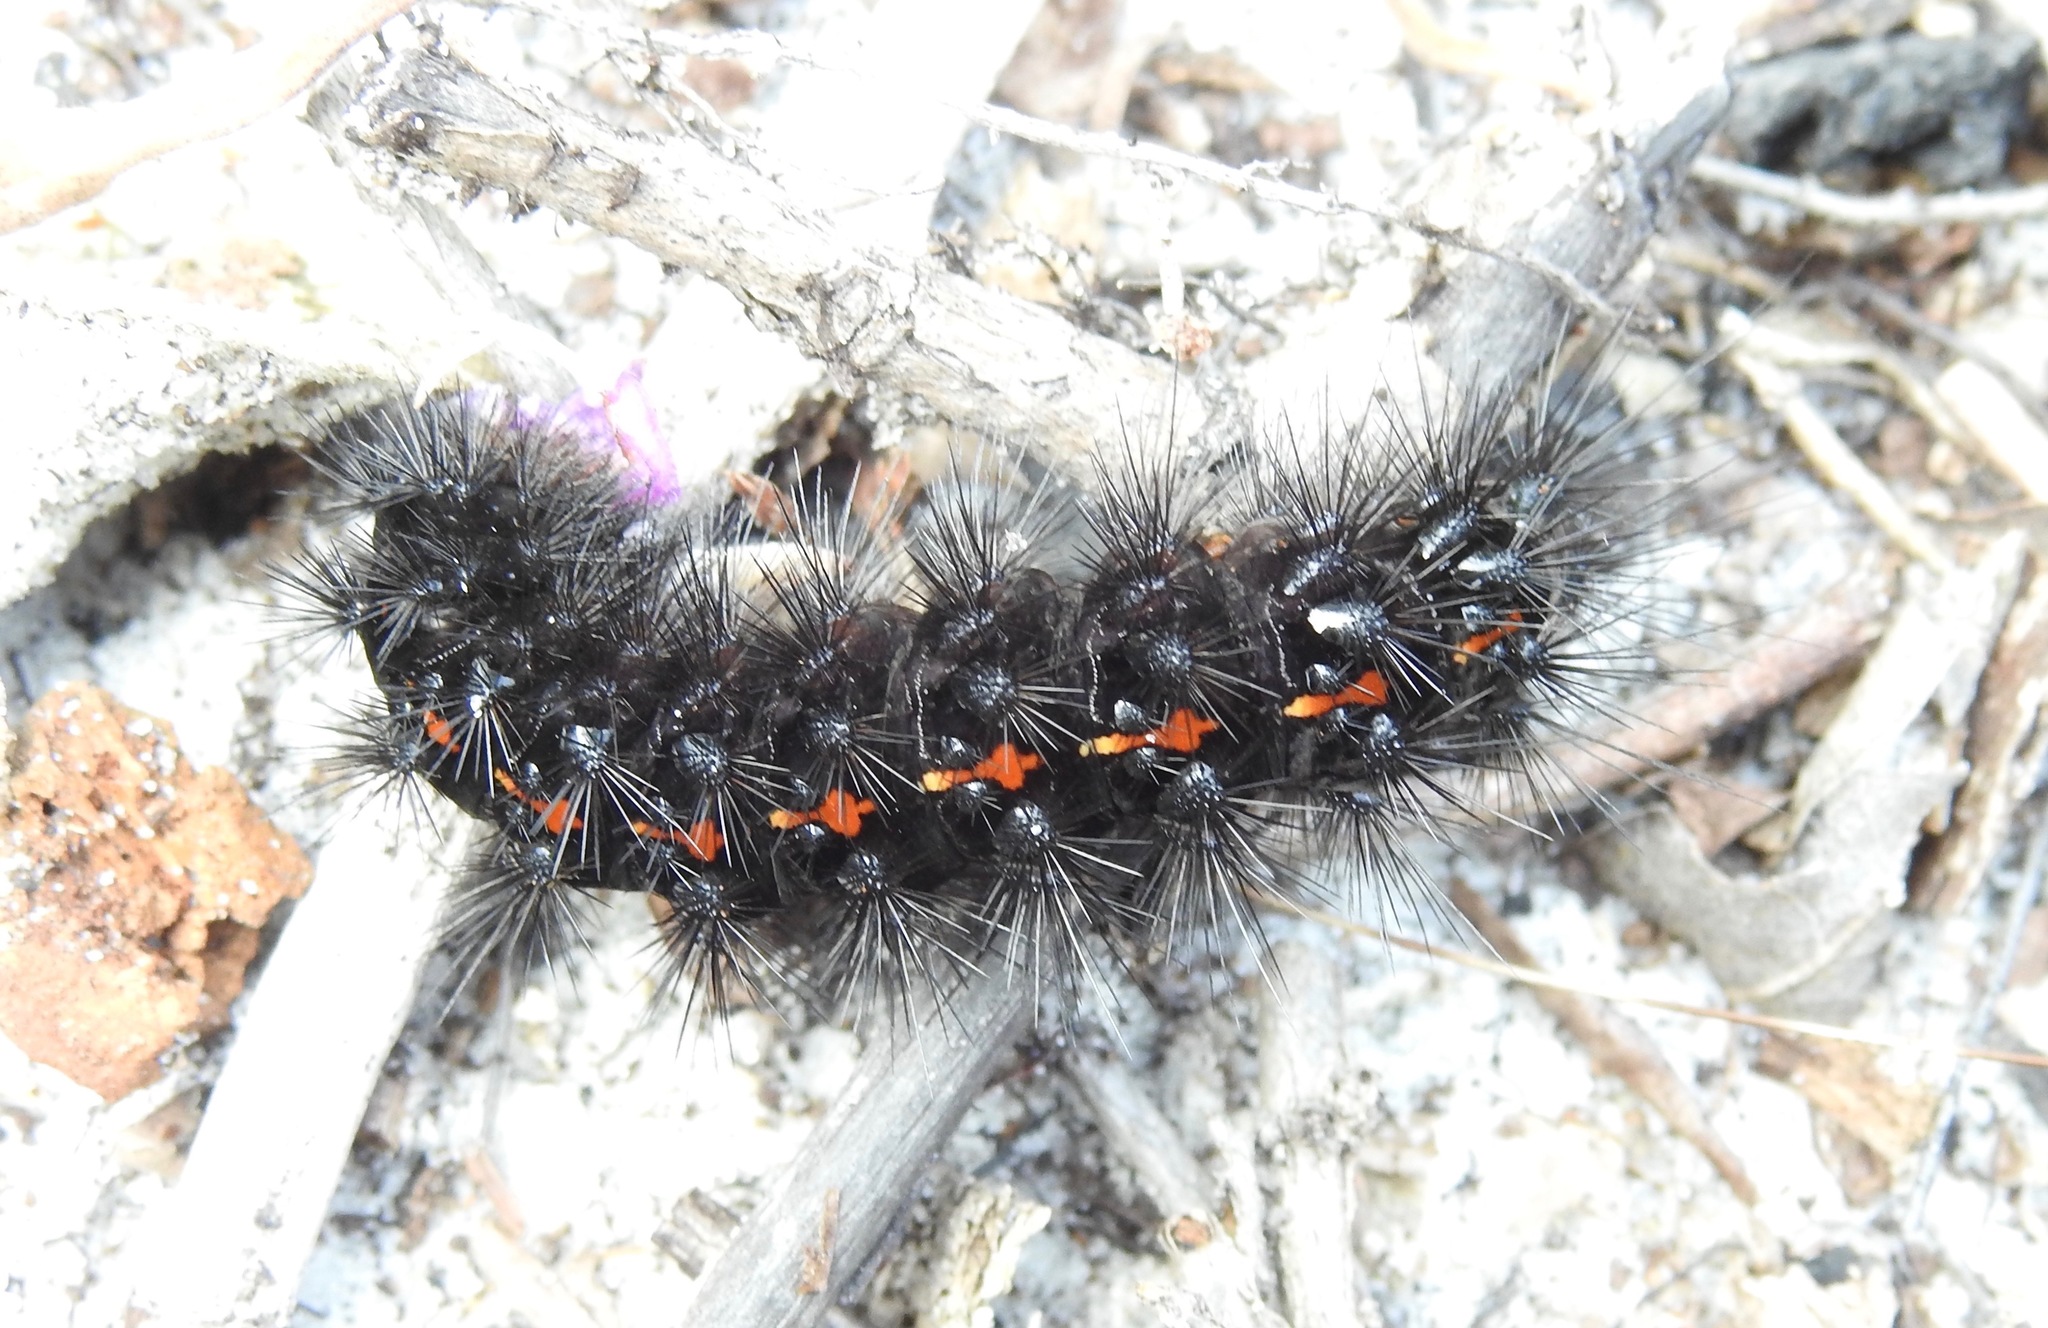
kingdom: Animalia
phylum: Arthropoda
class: Insecta
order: Lepidoptera
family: Erebidae
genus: Apantesis
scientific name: Apantesis
